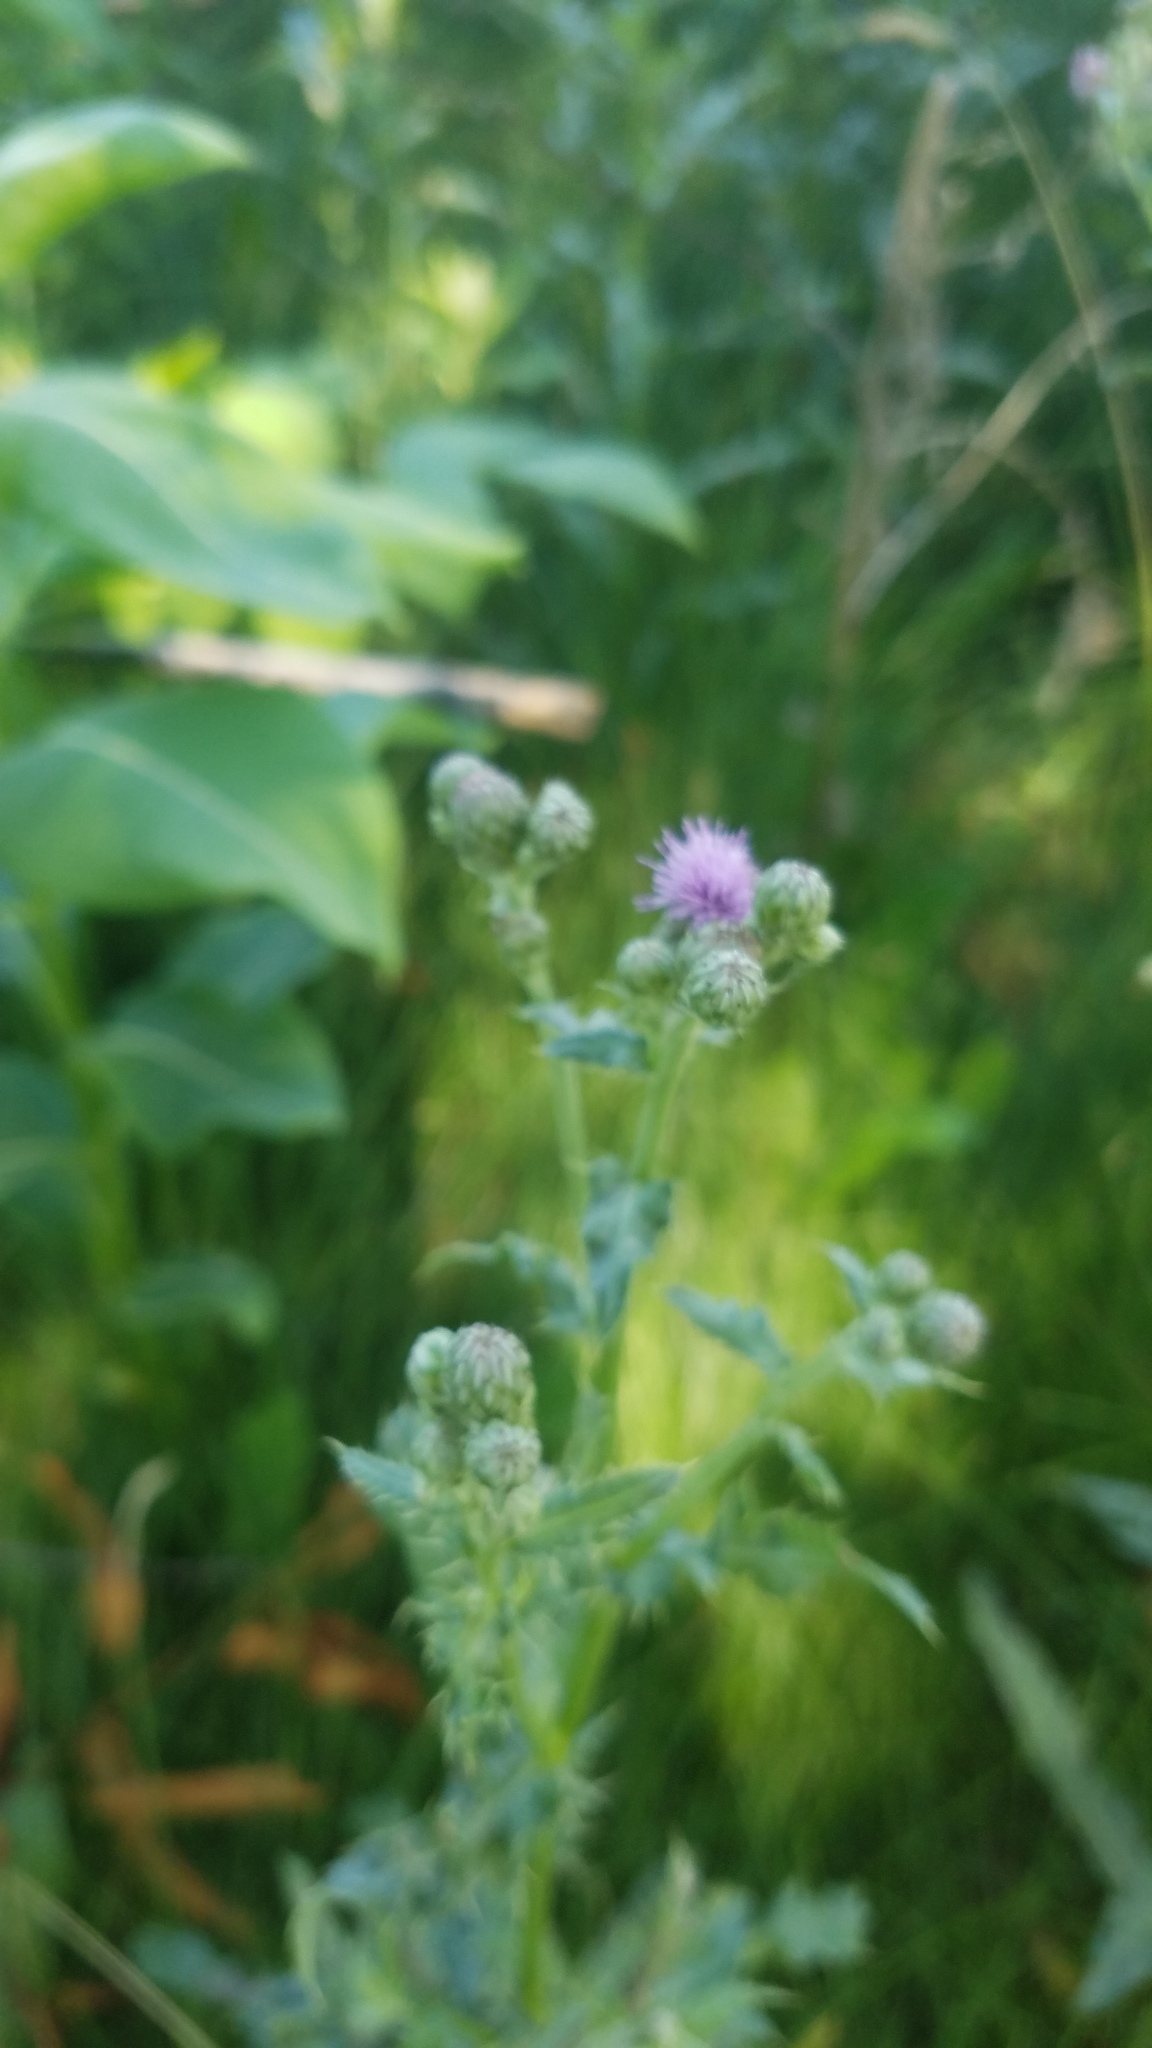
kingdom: Plantae
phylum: Tracheophyta
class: Magnoliopsida
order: Asterales
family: Asteraceae
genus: Cirsium
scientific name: Cirsium arvense
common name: Creeping thistle
